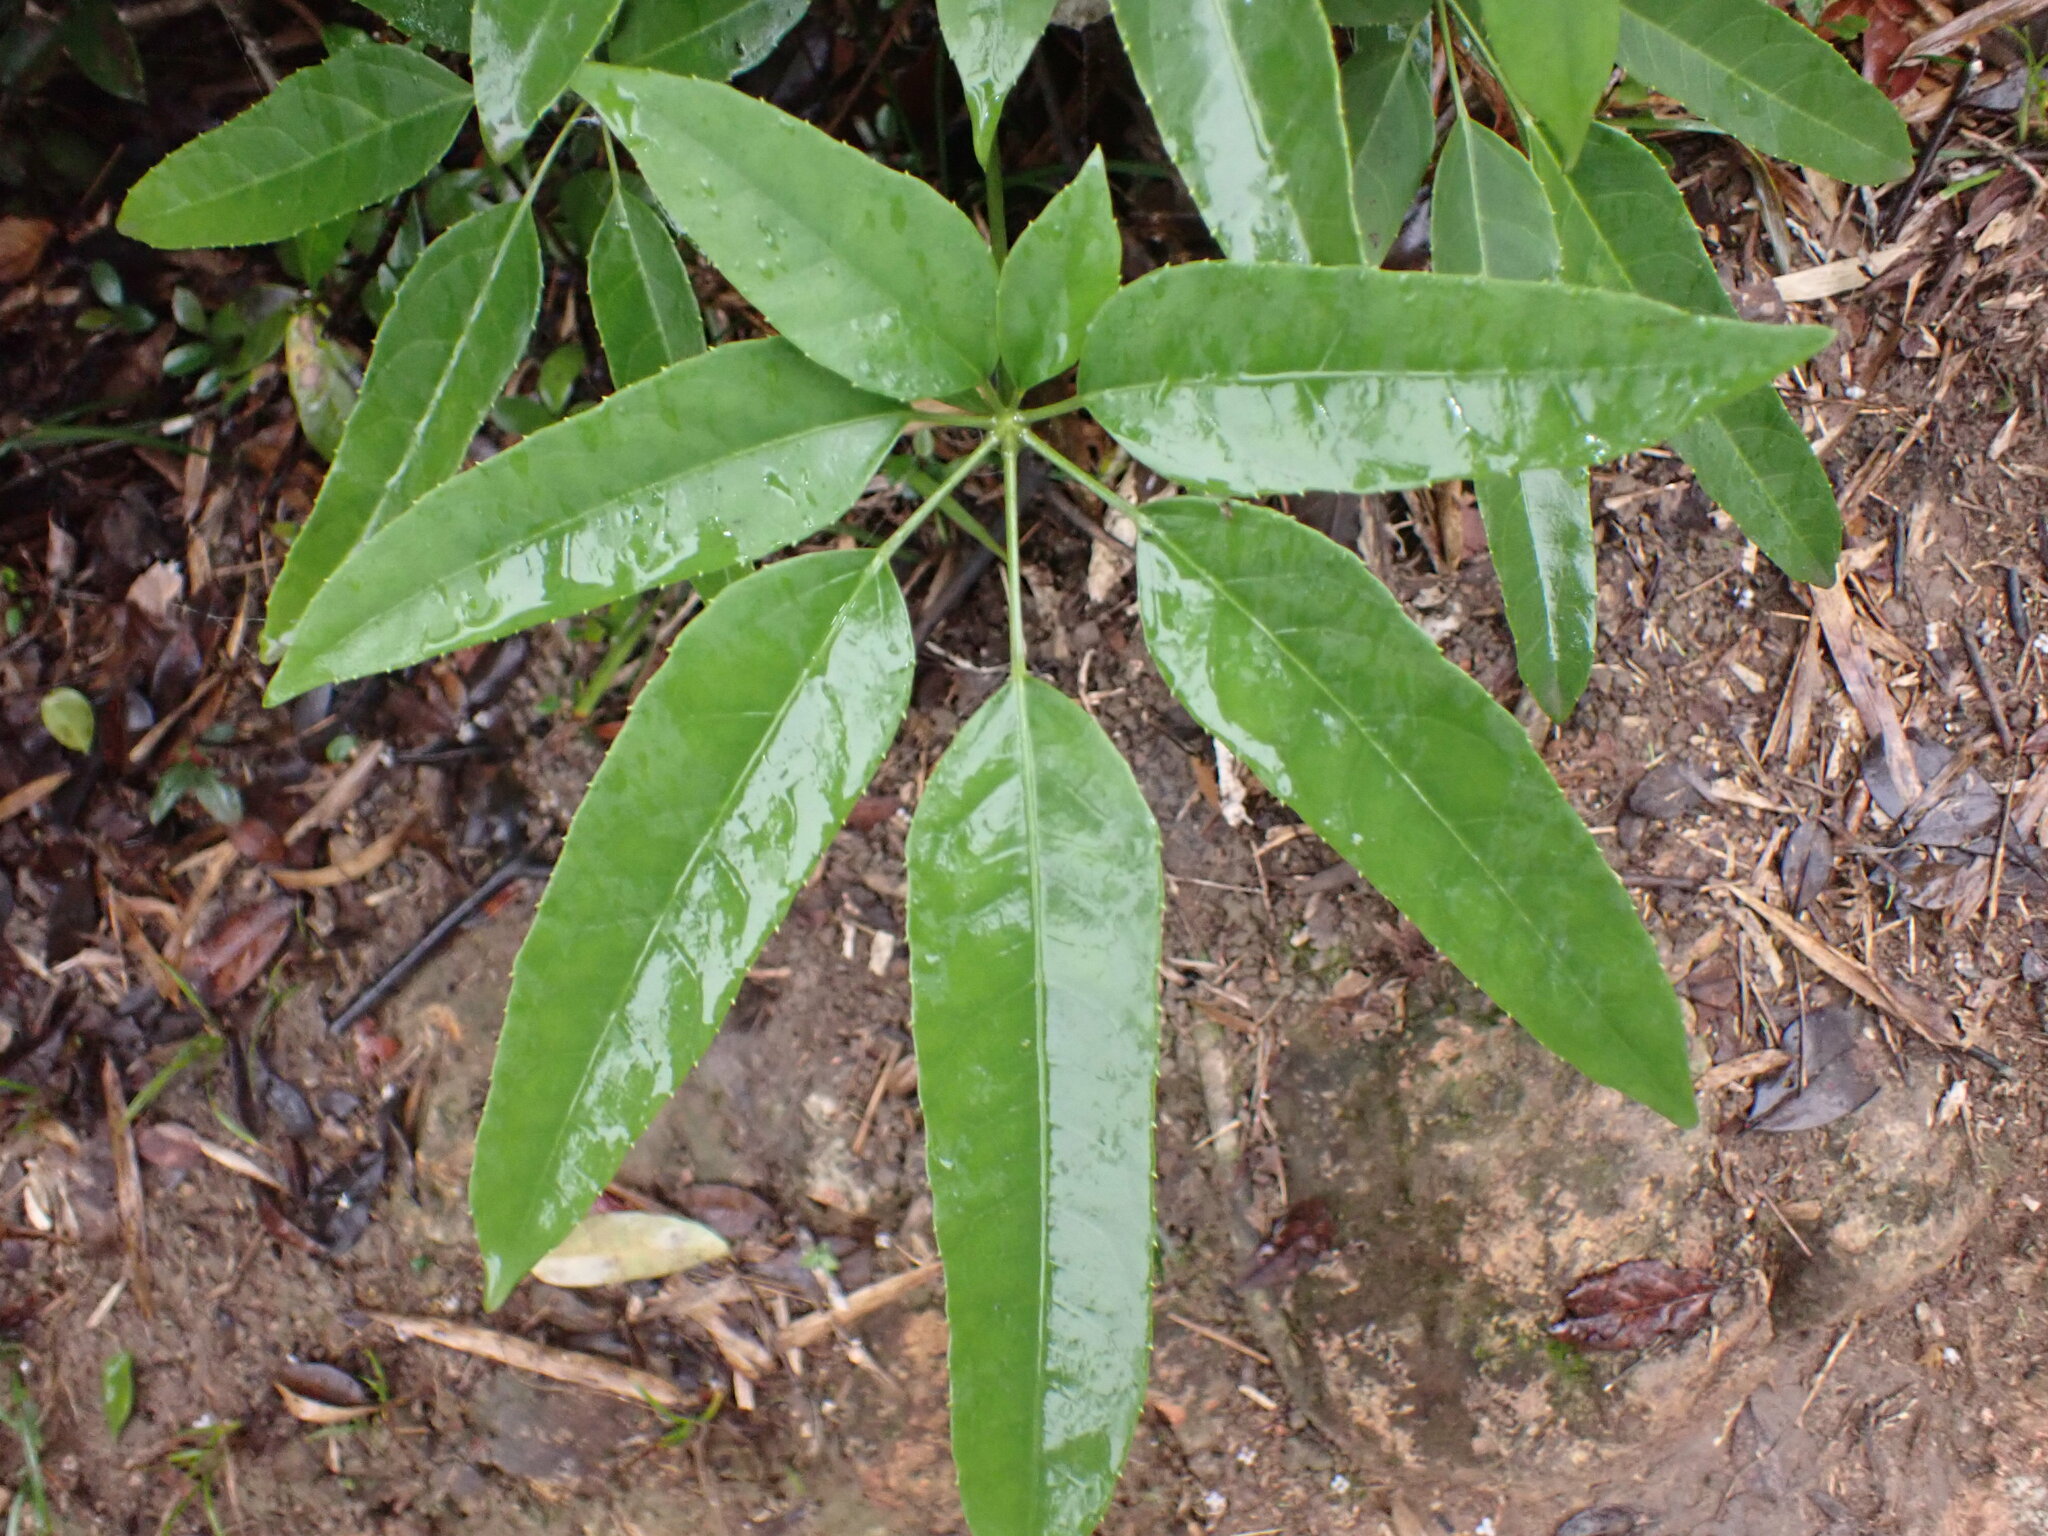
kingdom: Plantae
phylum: Tracheophyta
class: Magnoliopsida
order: Apiales
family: Araliaceae
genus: Heptapleurum
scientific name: Heptapleurum heptaphyllum
